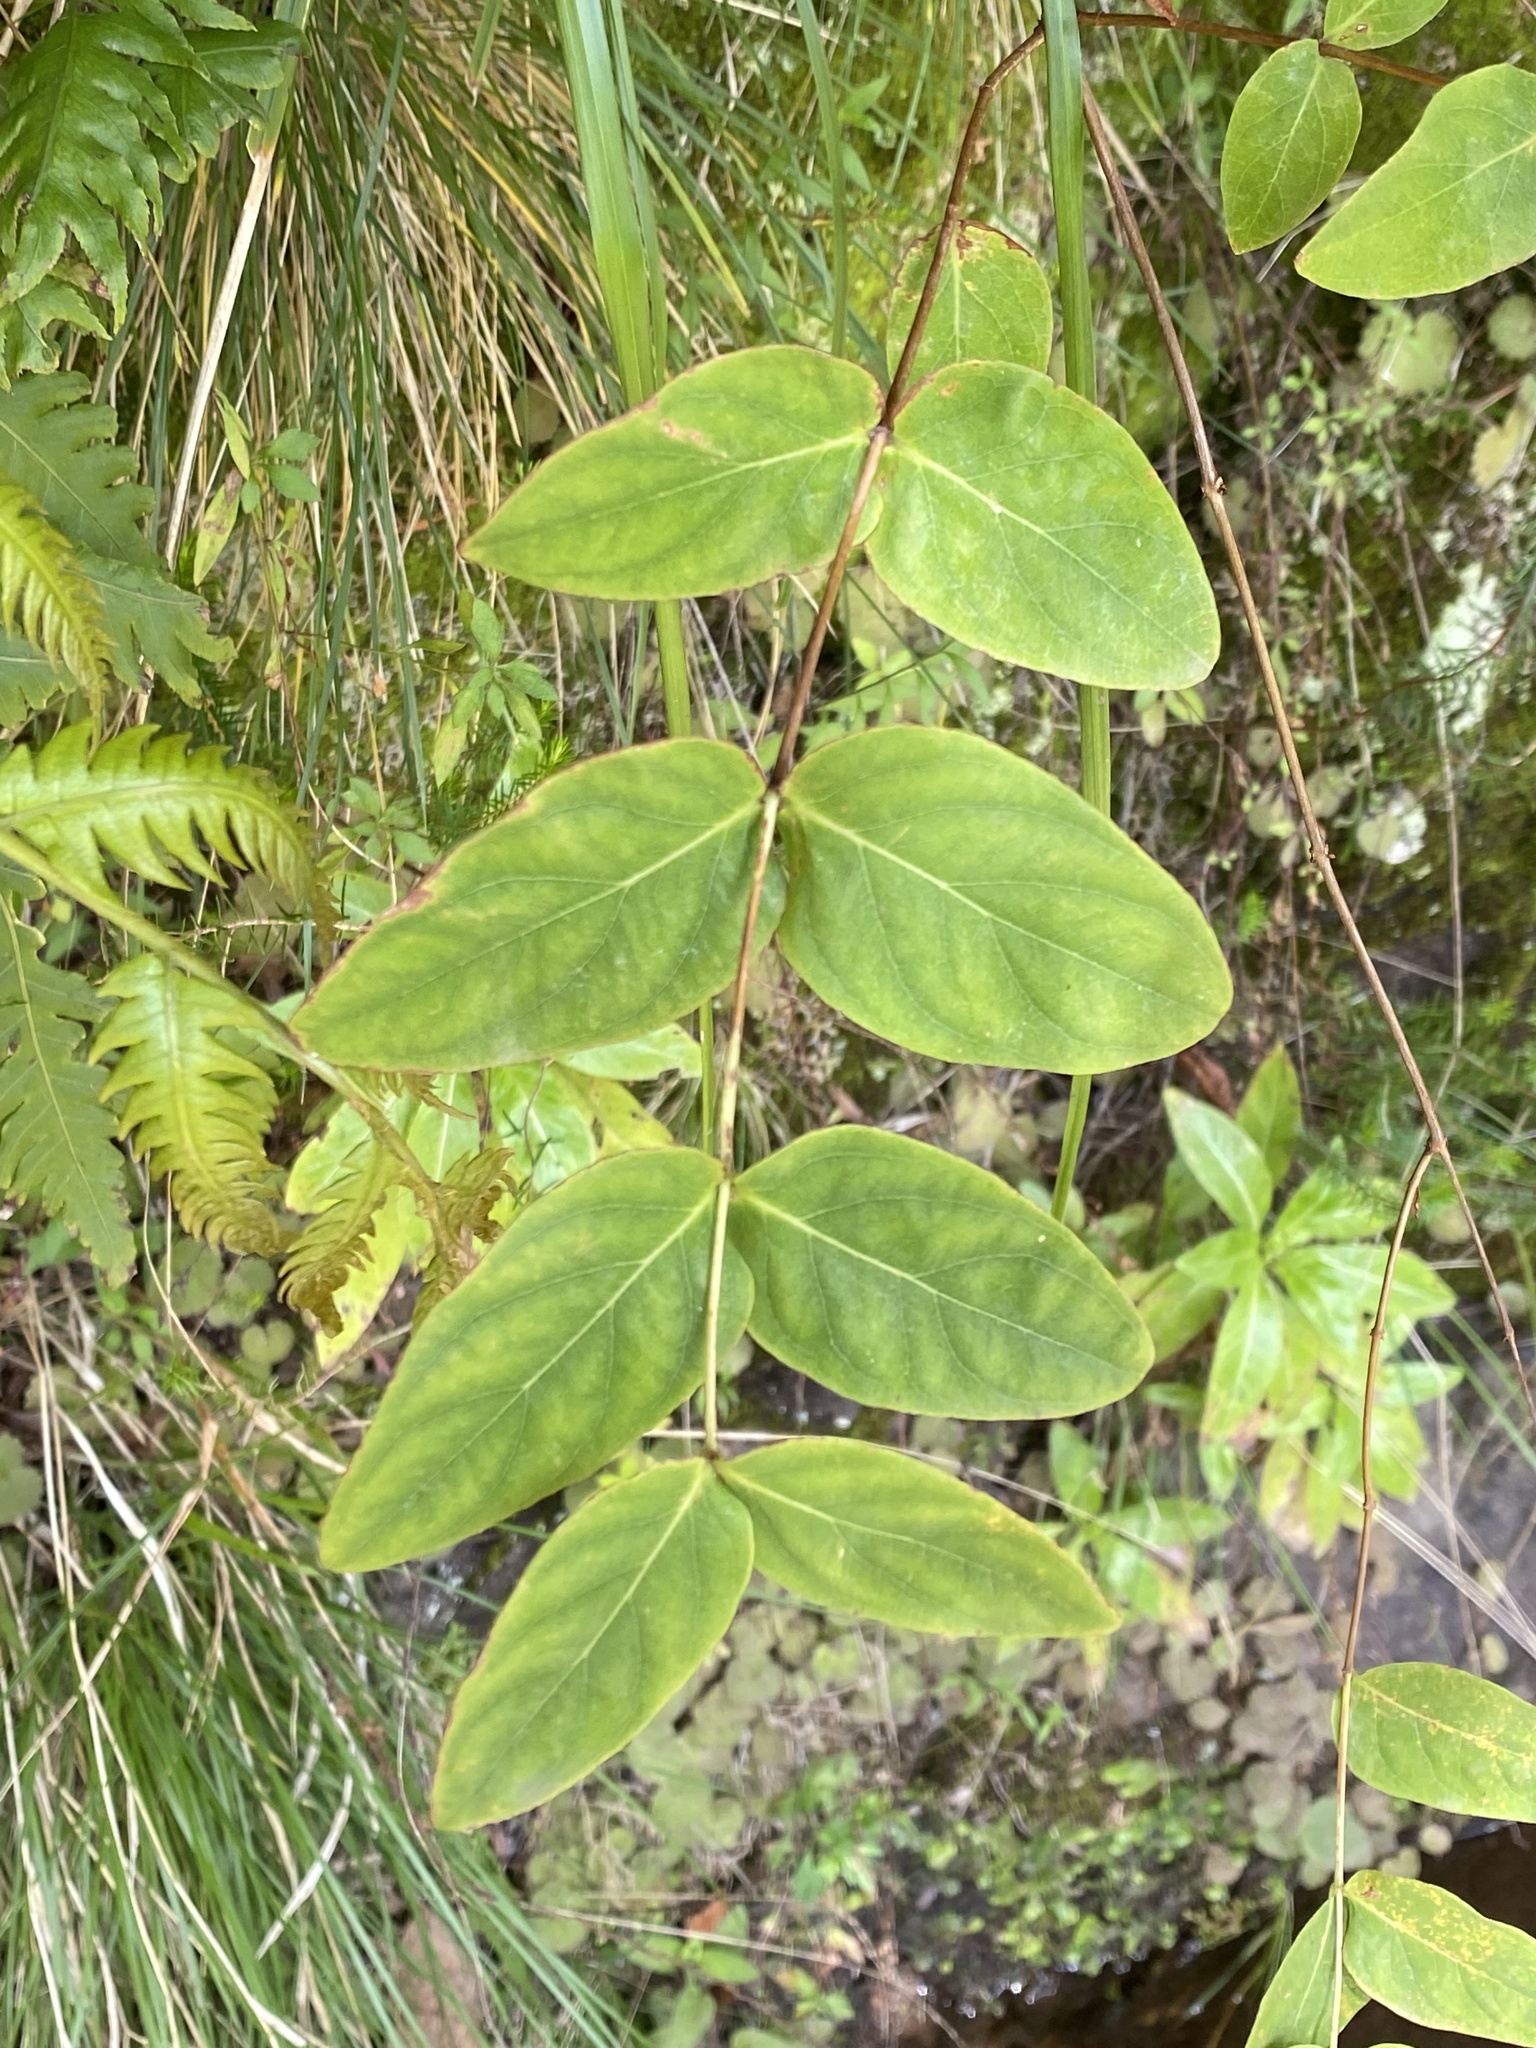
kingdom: Plantae
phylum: Tracheophyta
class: Magnoliopsida
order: Malpighiales
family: Hypericaceae
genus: Hypericum
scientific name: Hypericum grandifolium
